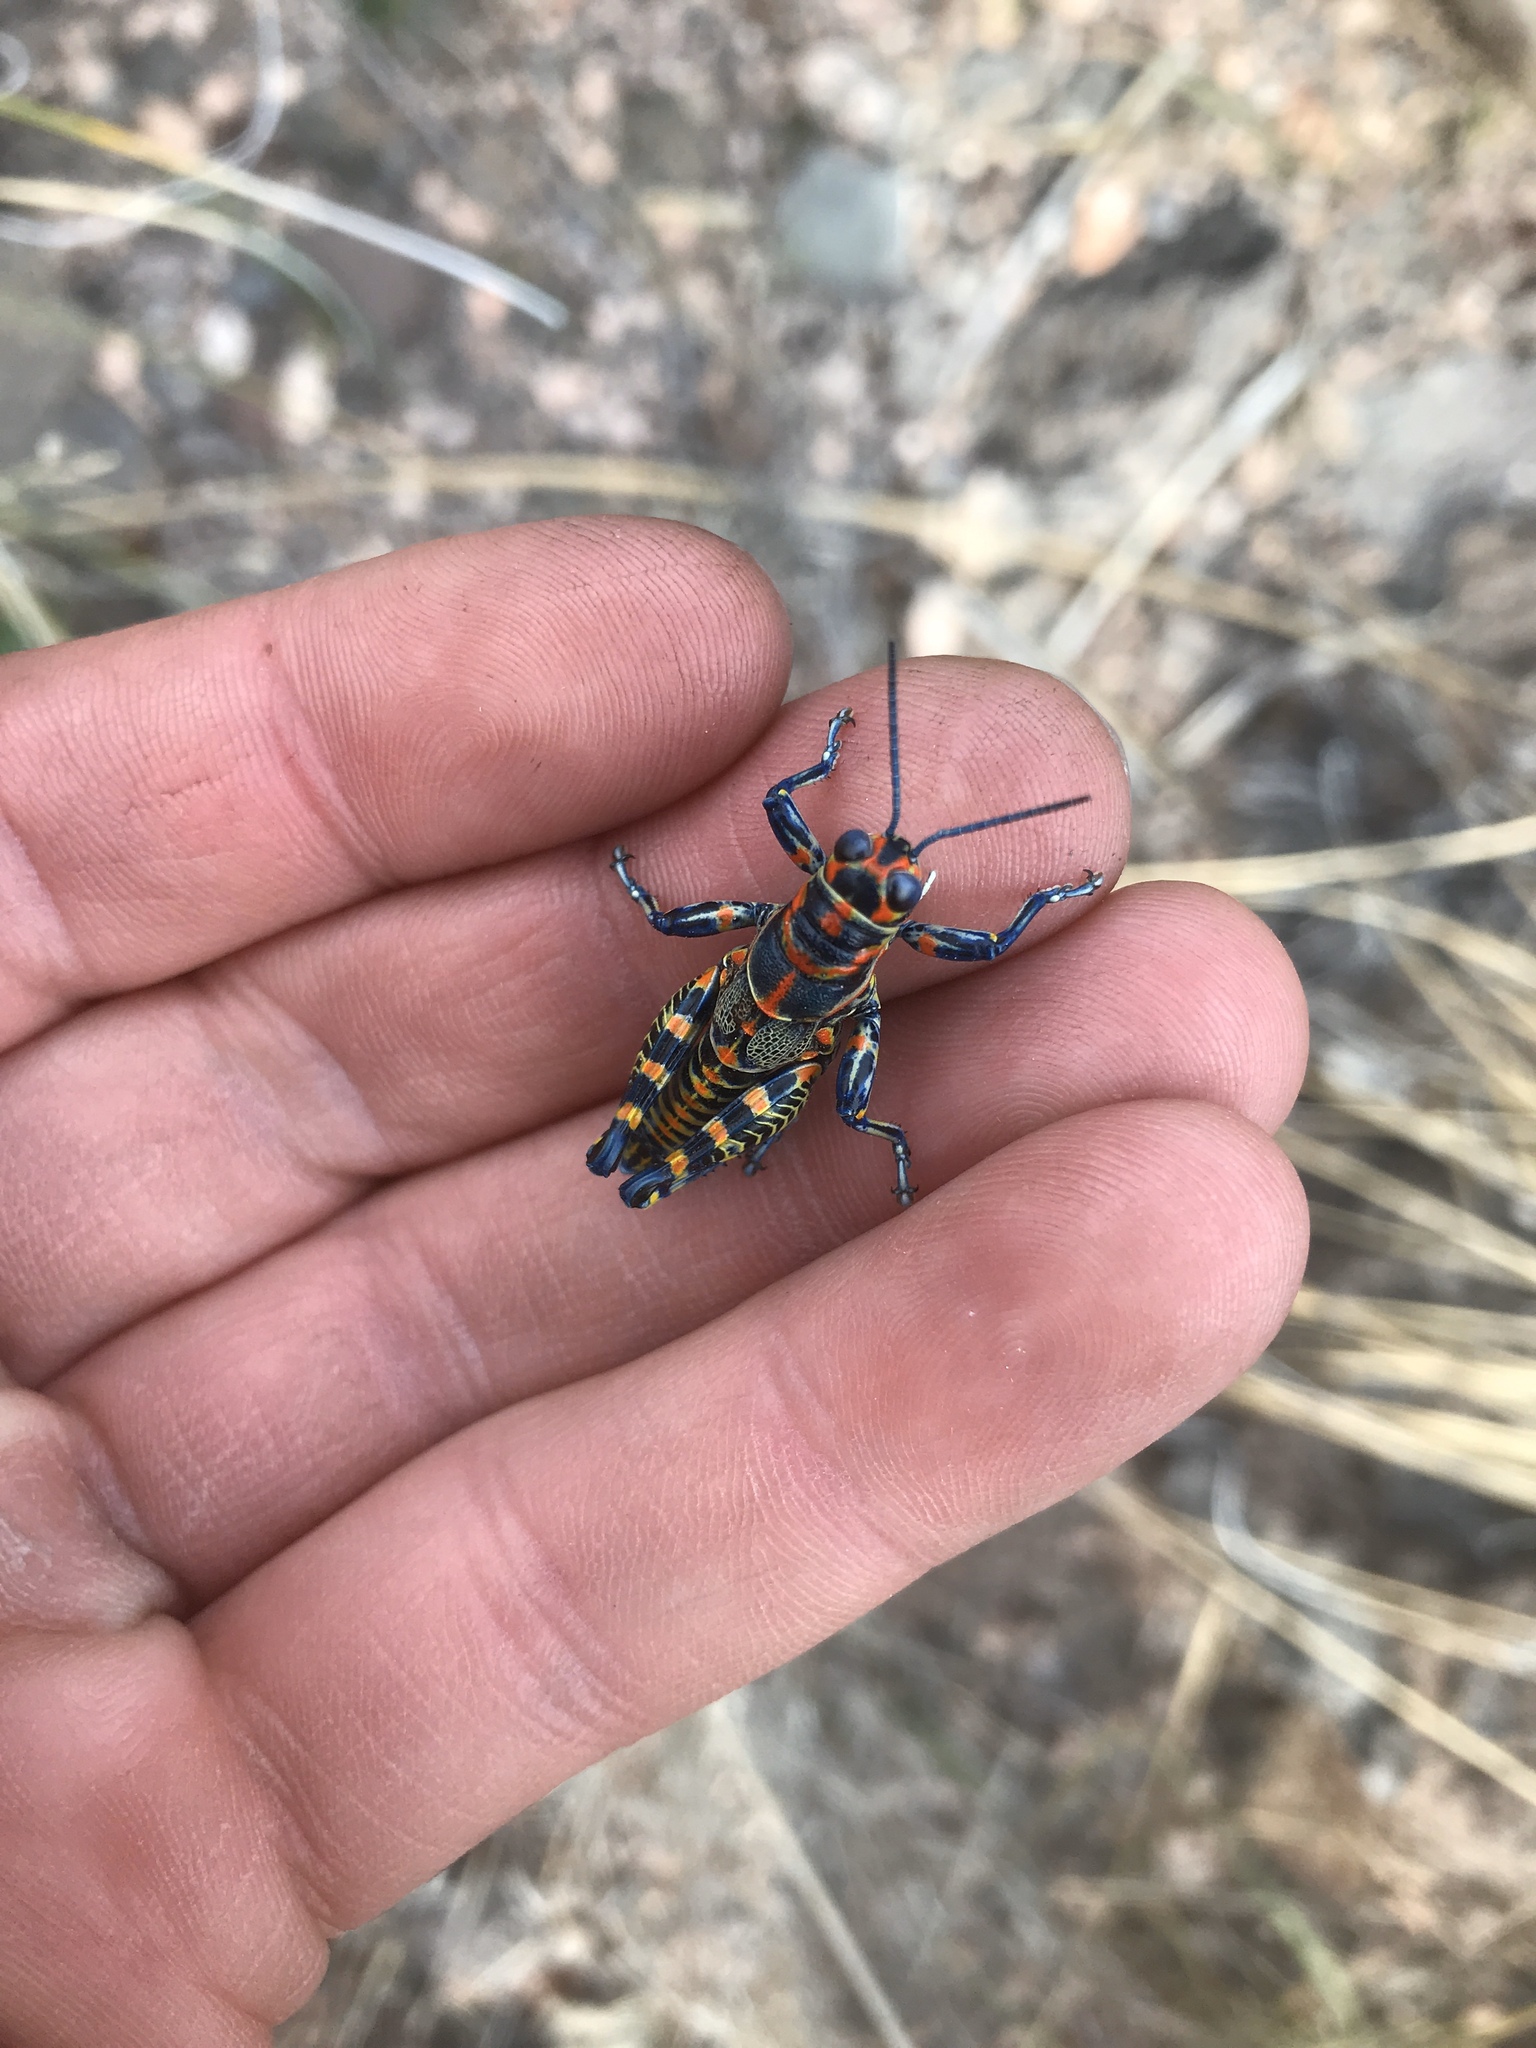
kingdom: Animalia
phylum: Arthropoda
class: Insecta
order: Orthoptera
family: Acrididae
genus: Dactylotum
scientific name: Dactylotum bicolor
